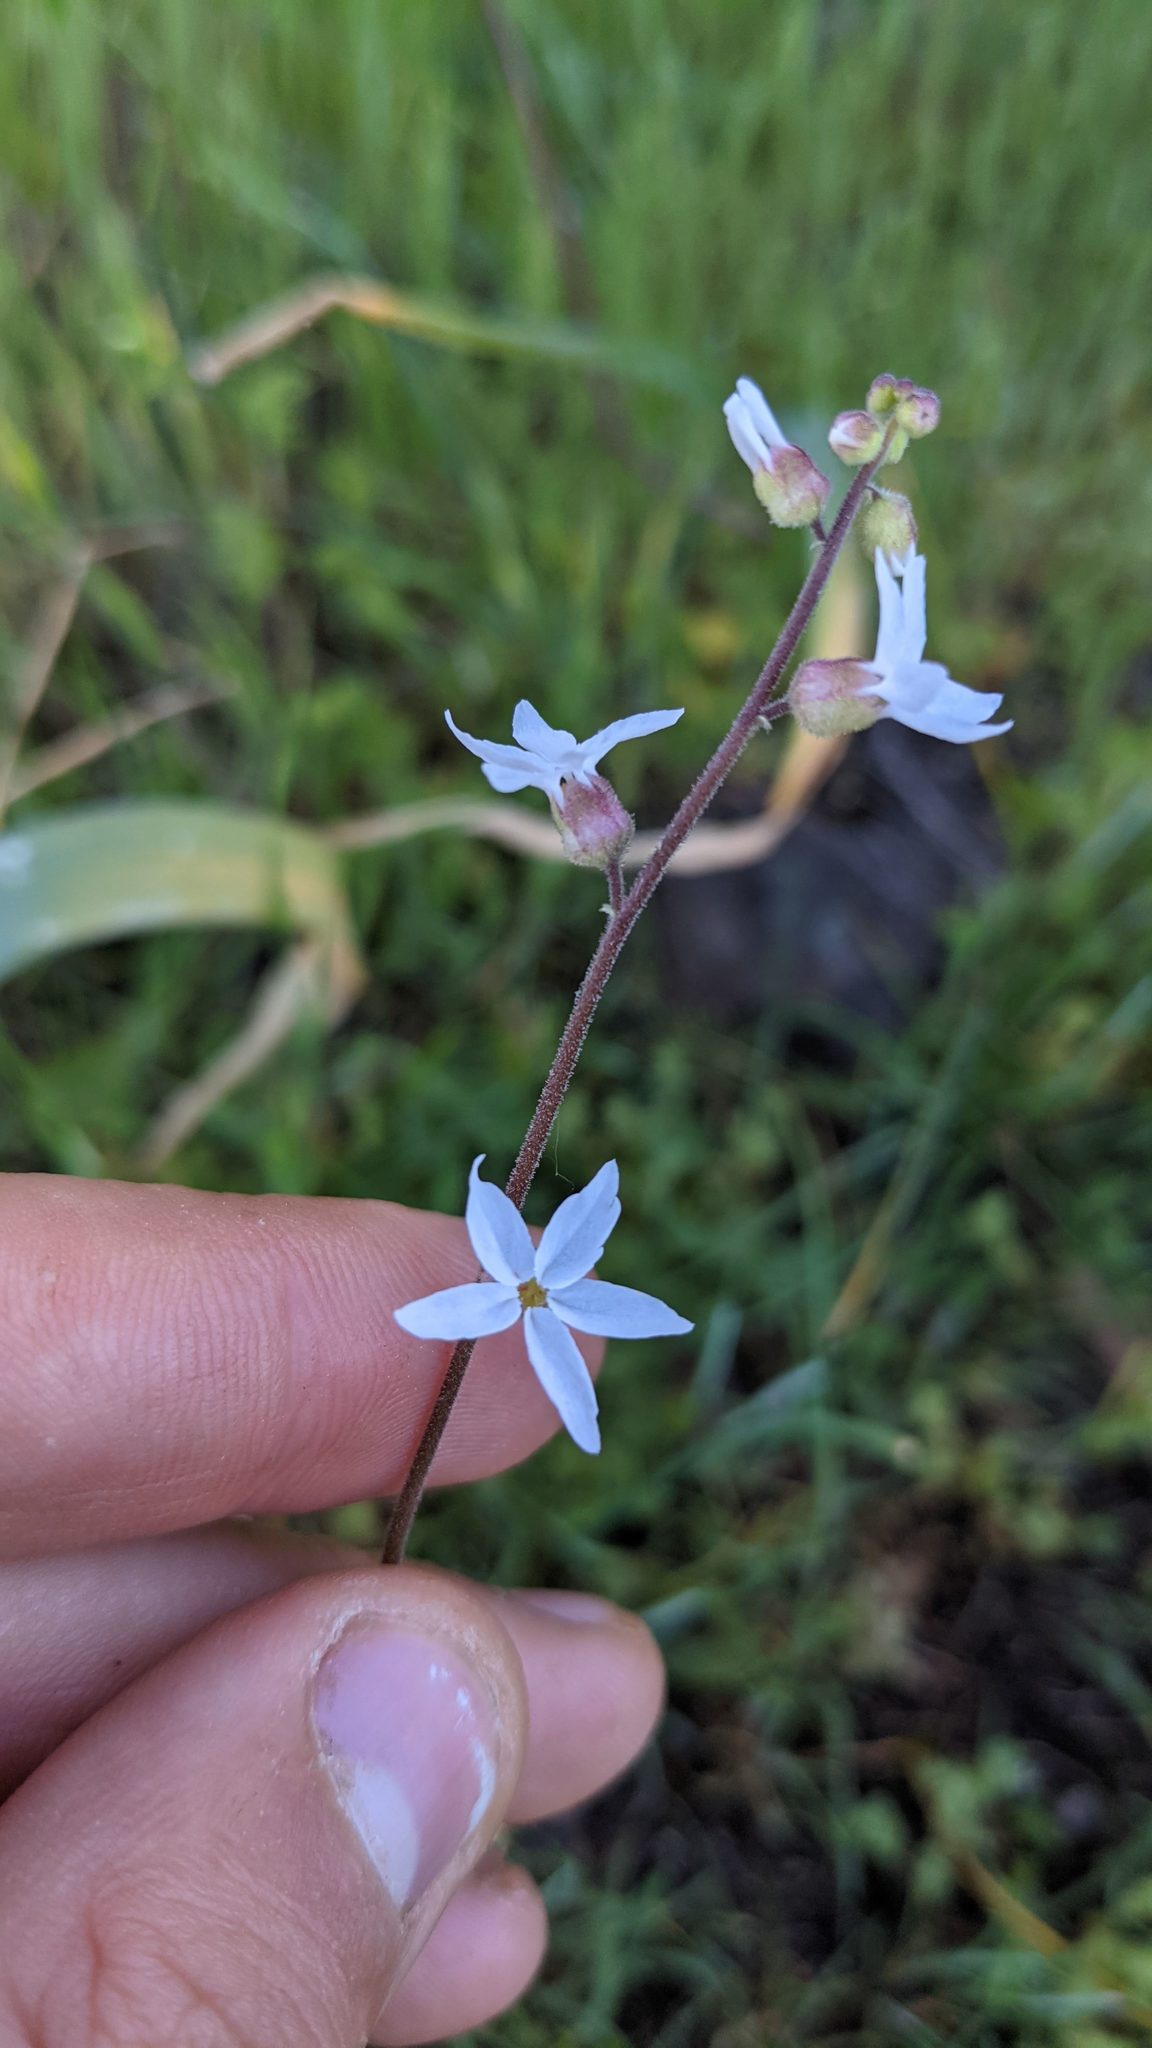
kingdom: Plantae
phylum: Tracheophyta
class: Magnoliopsida
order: Saxifragales
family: Saxifragaceae
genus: Lithophragma
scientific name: Lithophragma bolanderi
